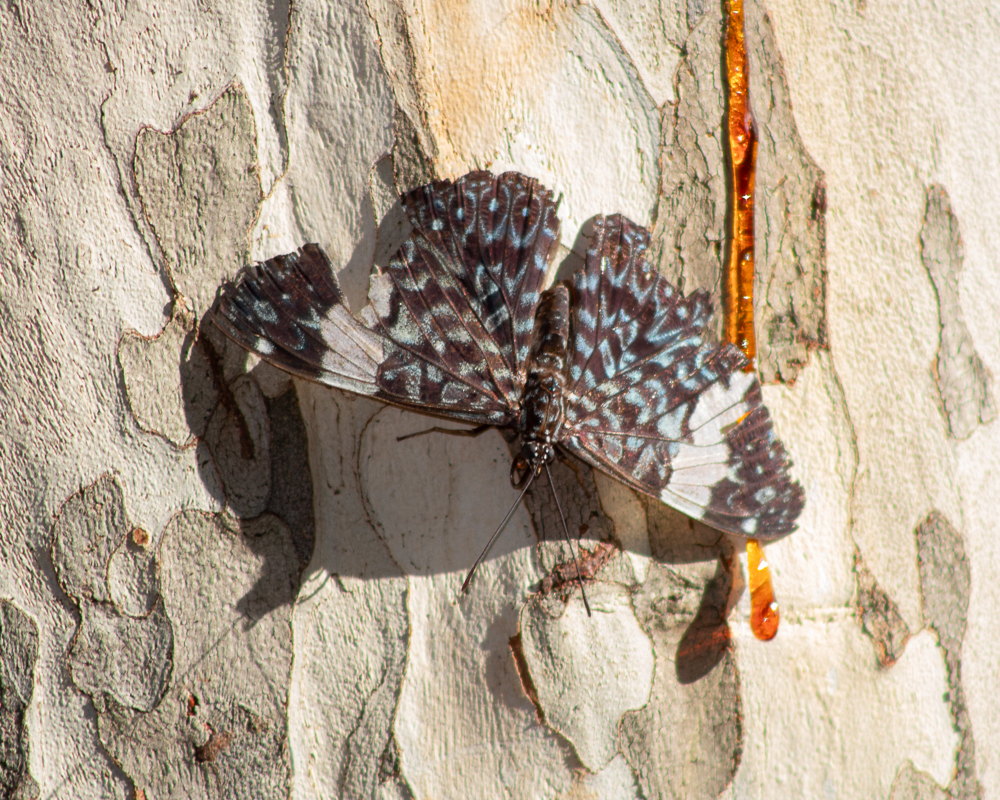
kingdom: Animalia
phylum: Arthropoda
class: Insecta
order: Lepidoptera
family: Nymphalidae
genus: Hamadryas
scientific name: Hamadryas amphinome
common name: Red cracker
